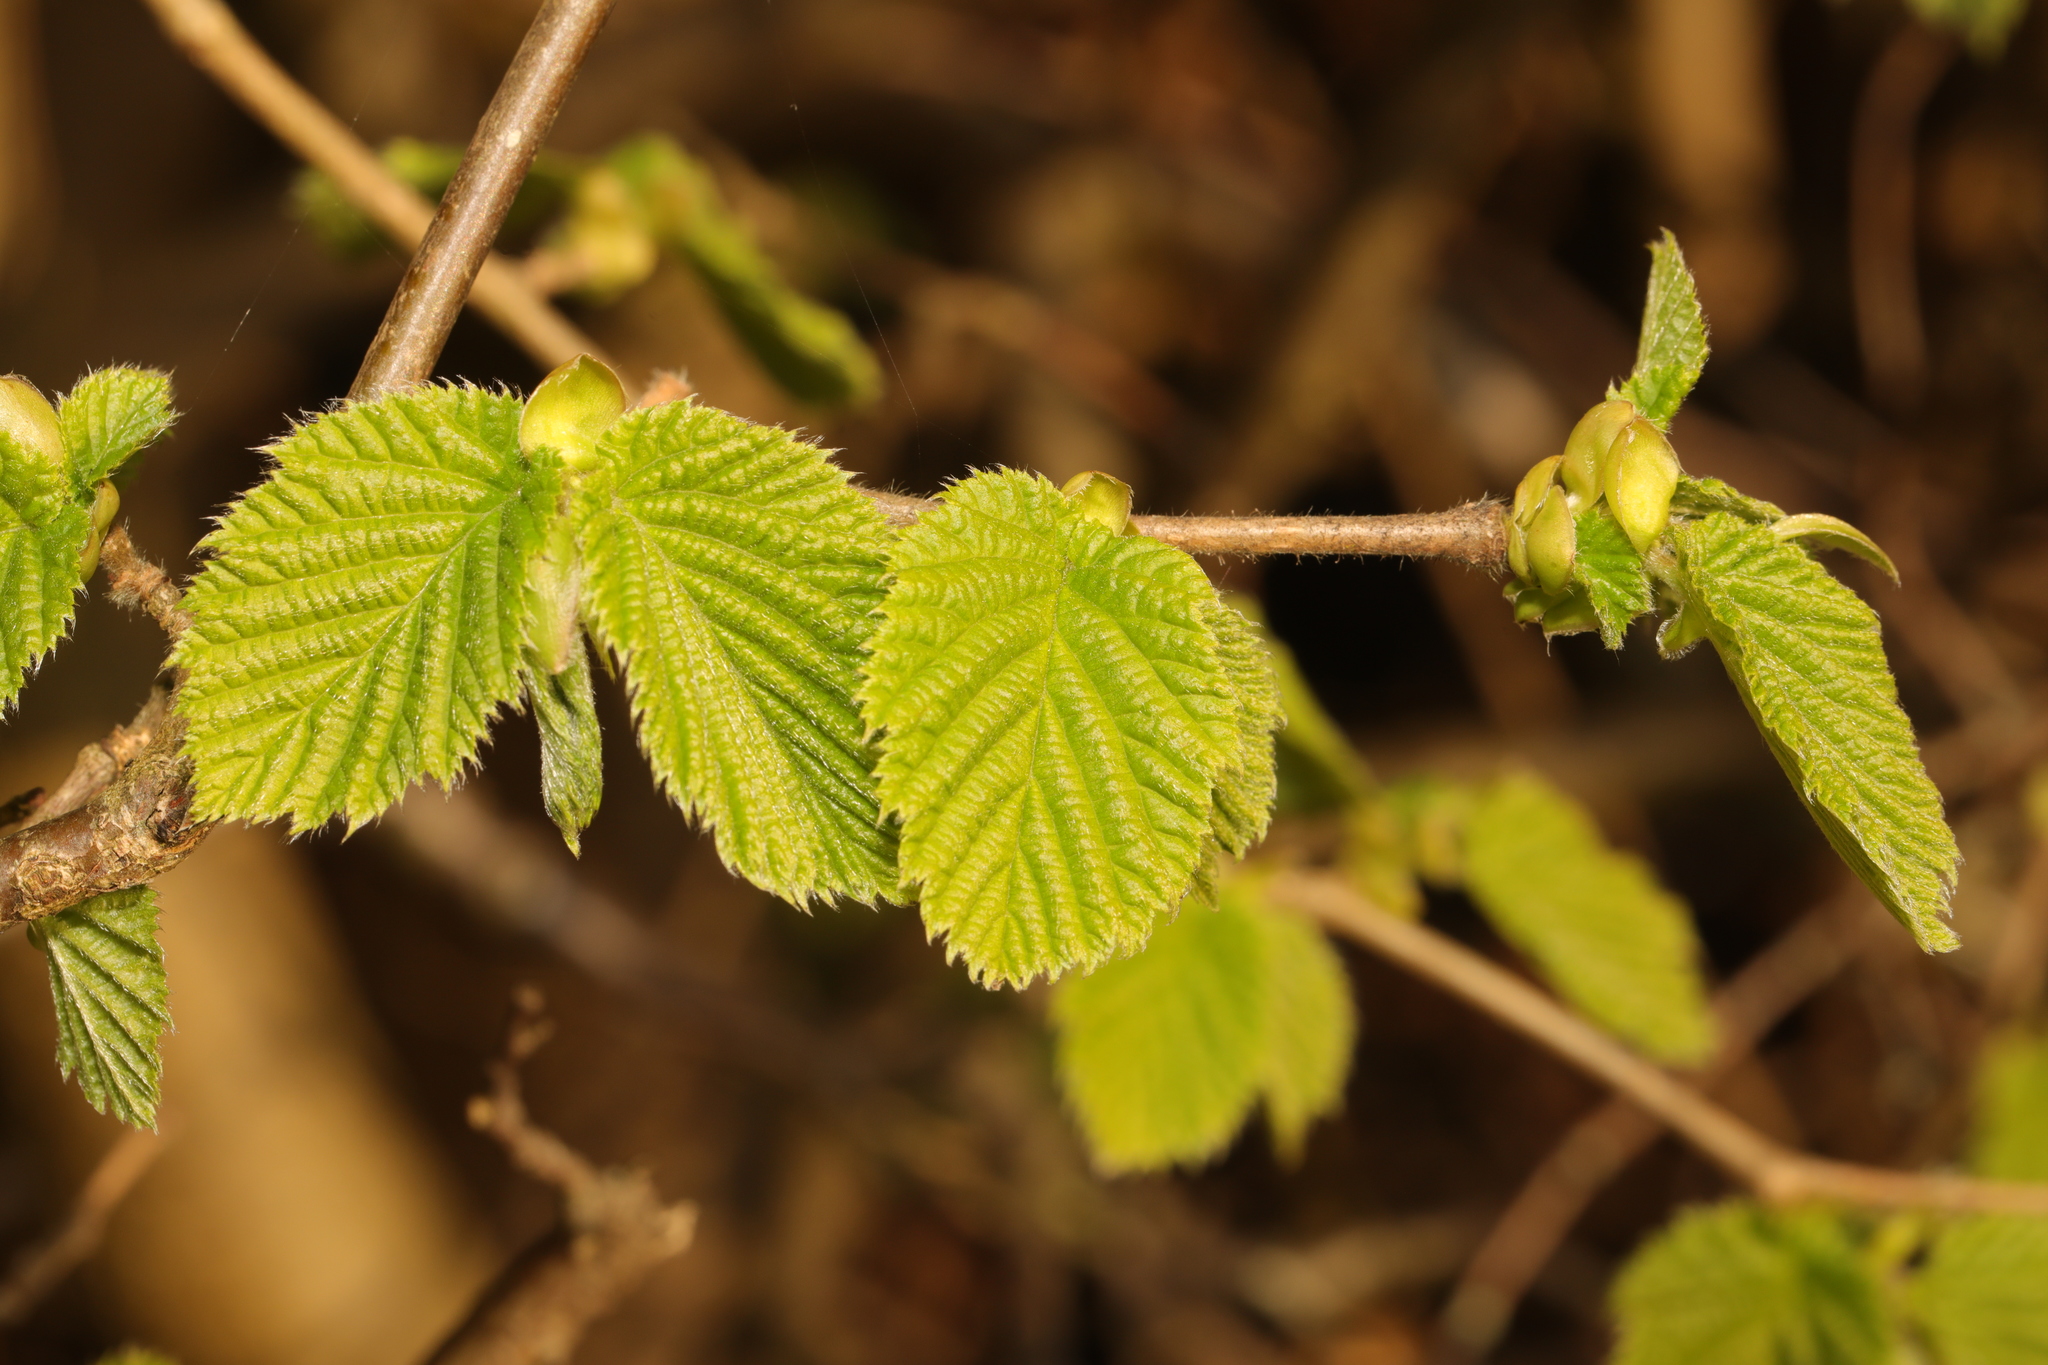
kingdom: Plantae
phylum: Tracheophyta
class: Magnoliopsida
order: Fagales
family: Betulaceae
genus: Corylus
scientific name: Corylus avellana
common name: European hazel
